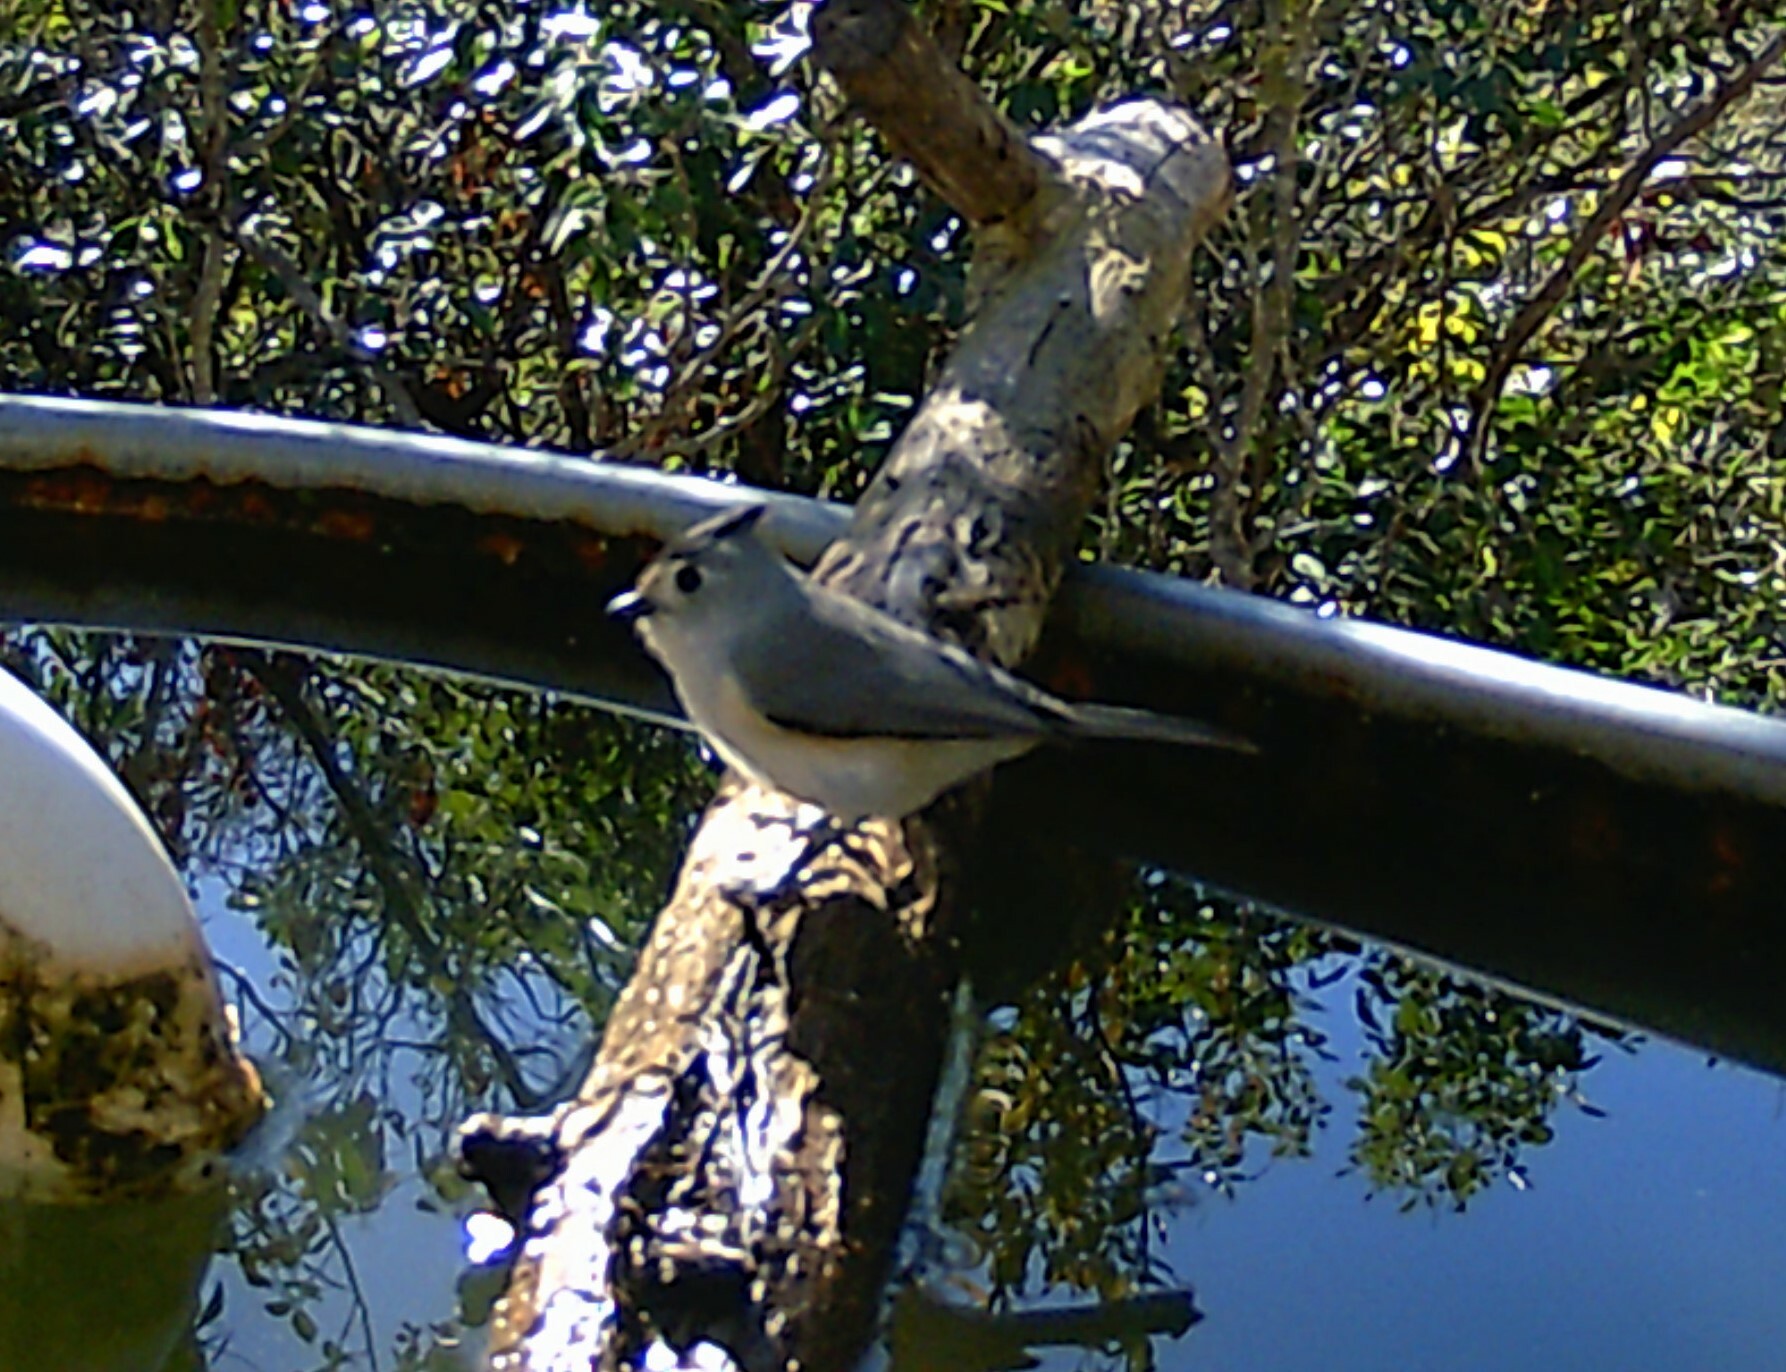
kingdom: Animalia
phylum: Chordata
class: Aves
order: Passeriformes
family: Paridae
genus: Baeolophus
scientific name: Baeolophus atricristatus
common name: Black-crested titmouse
